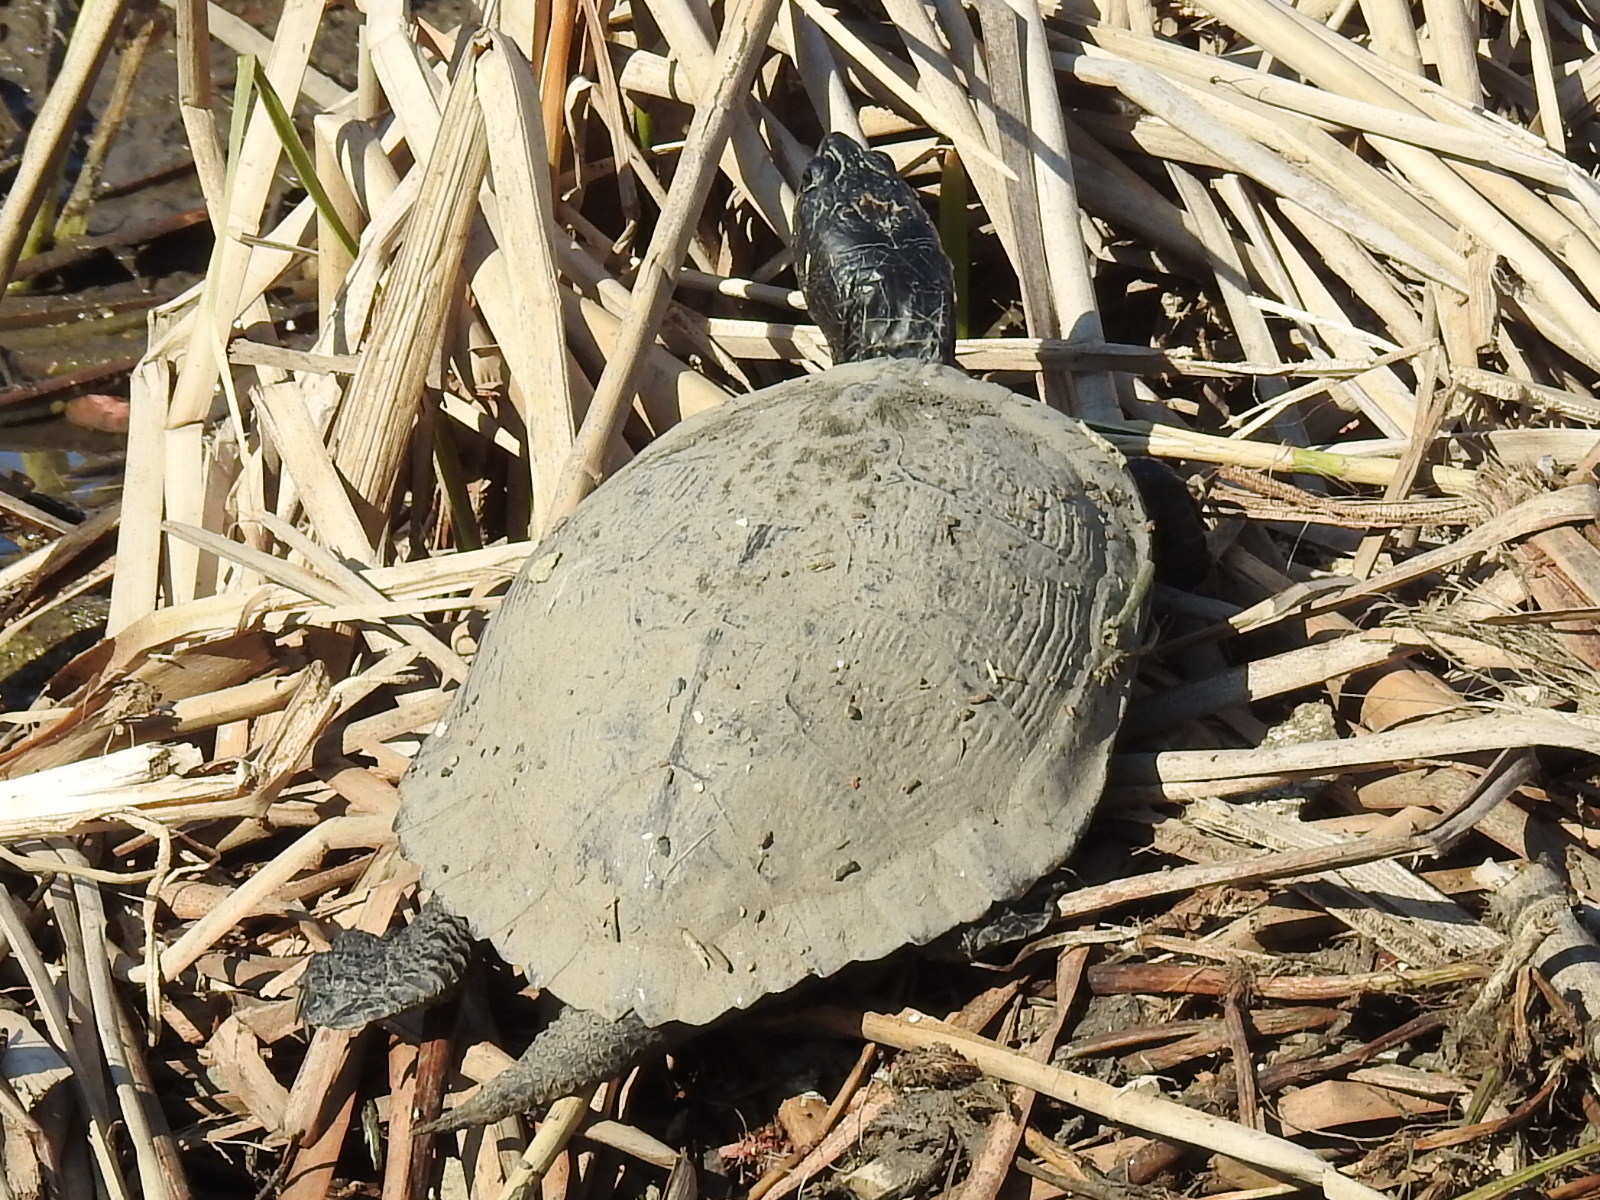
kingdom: Animalia
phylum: Chordata
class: Testudines
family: Emydidae
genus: Trachemys
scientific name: Trachemys scripta
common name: Slider
